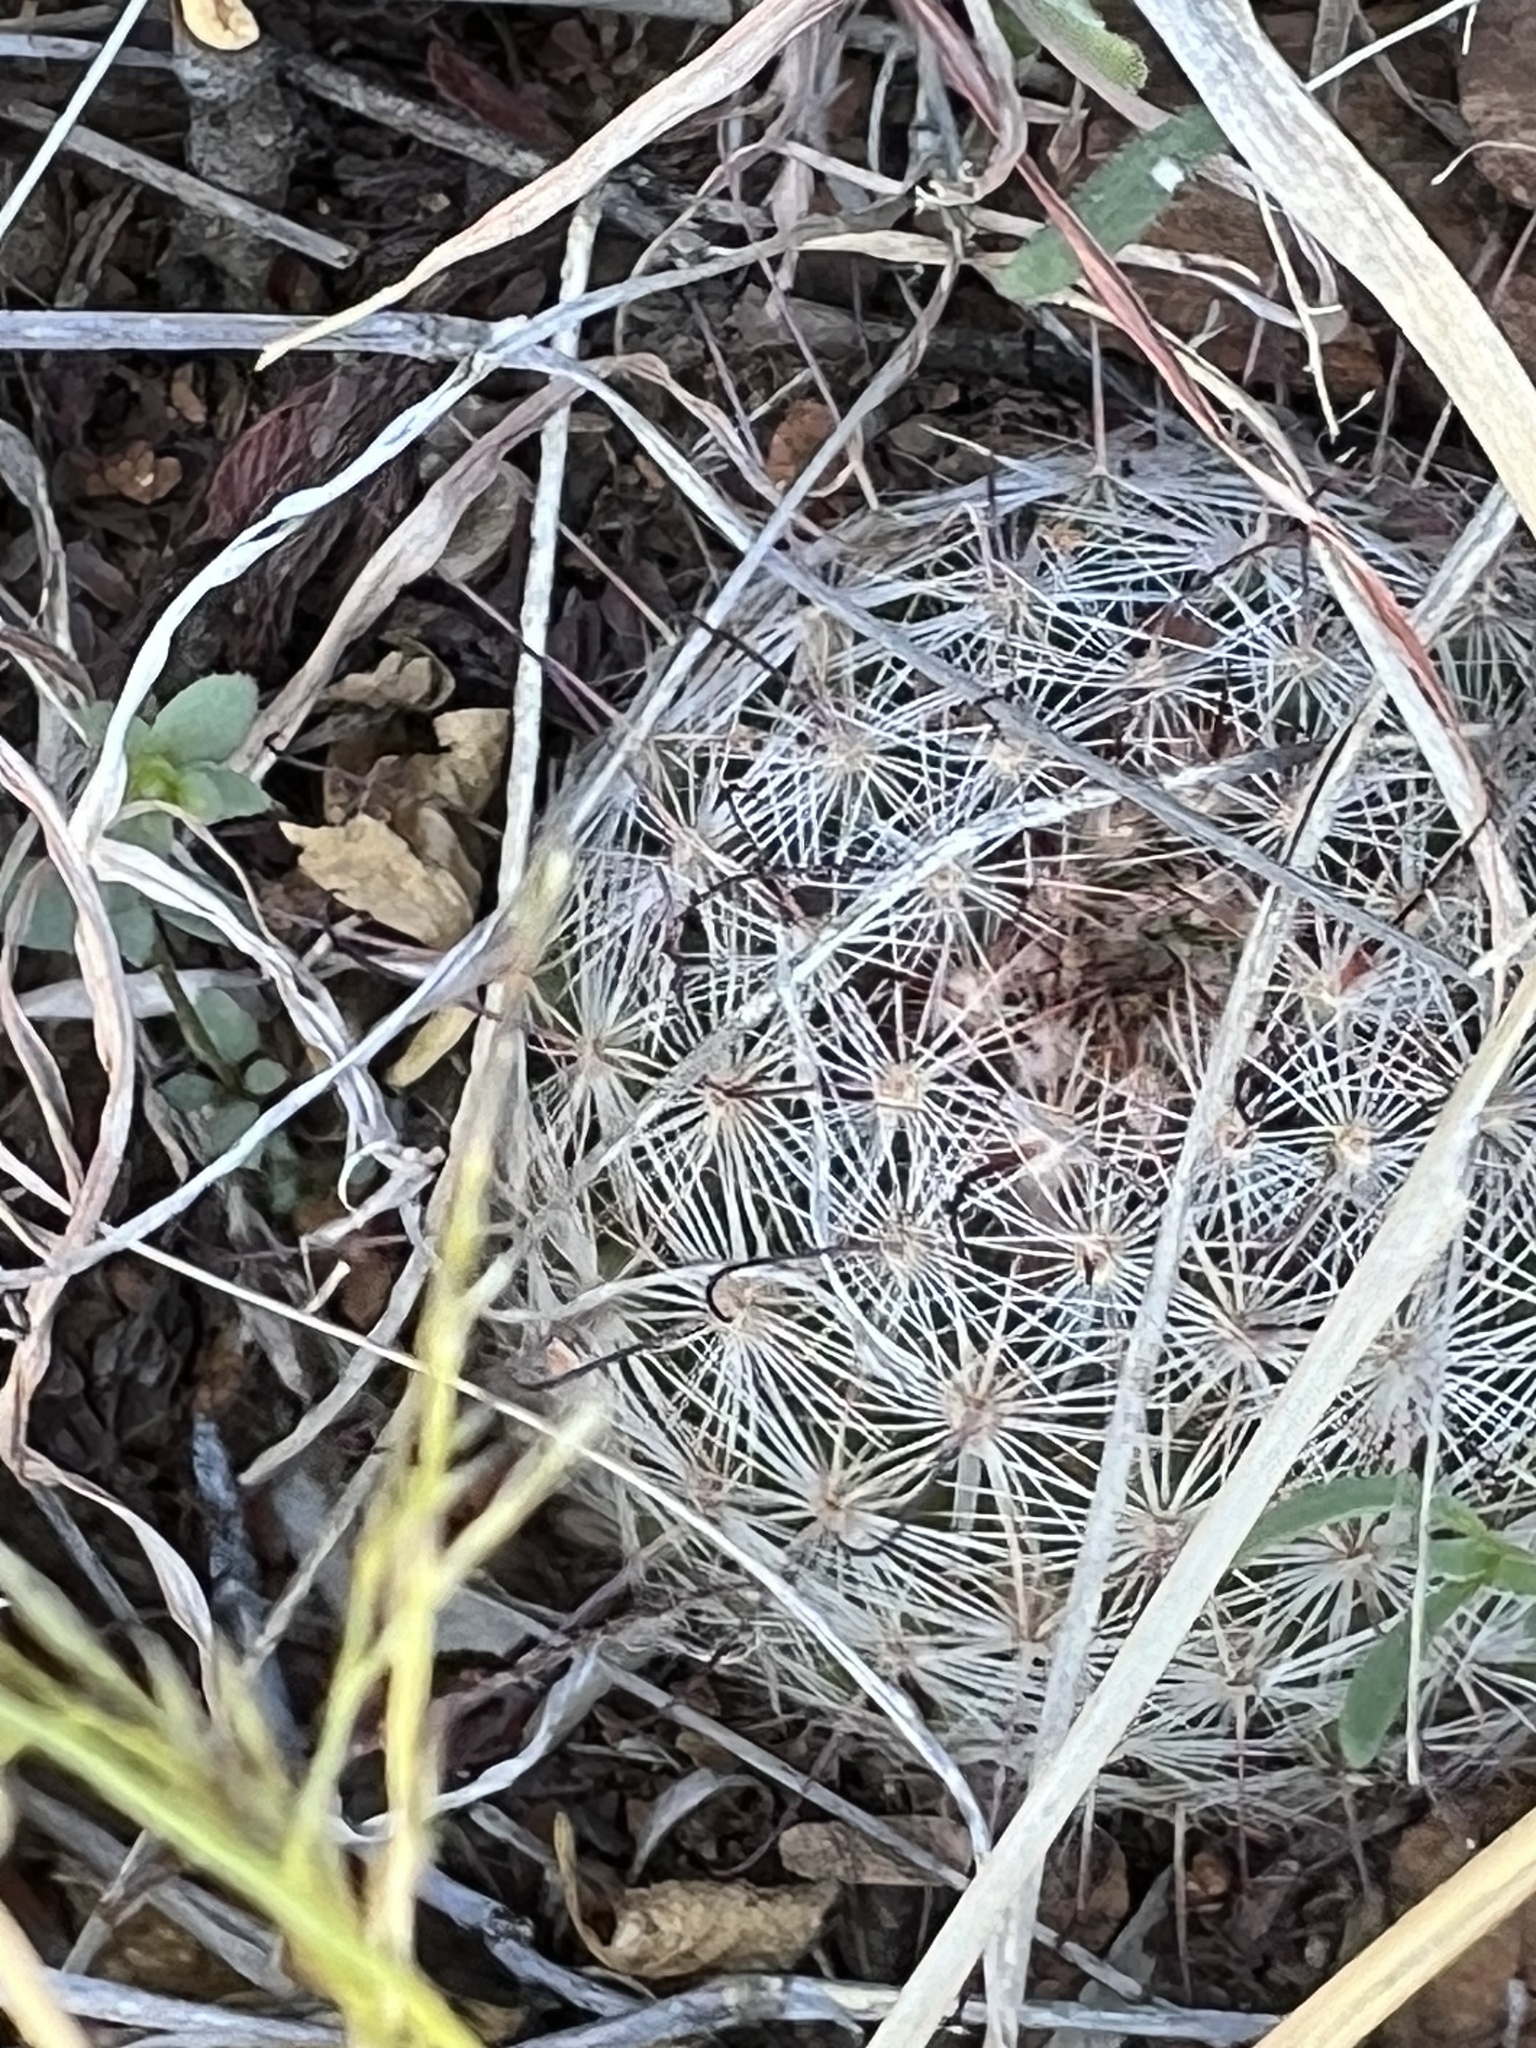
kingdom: Plantae
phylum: Tracheophyta
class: Magnoliopsida
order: Caryophyllales
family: Cactaceae
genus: Cochemiea
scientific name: Cochemiea grahamii
